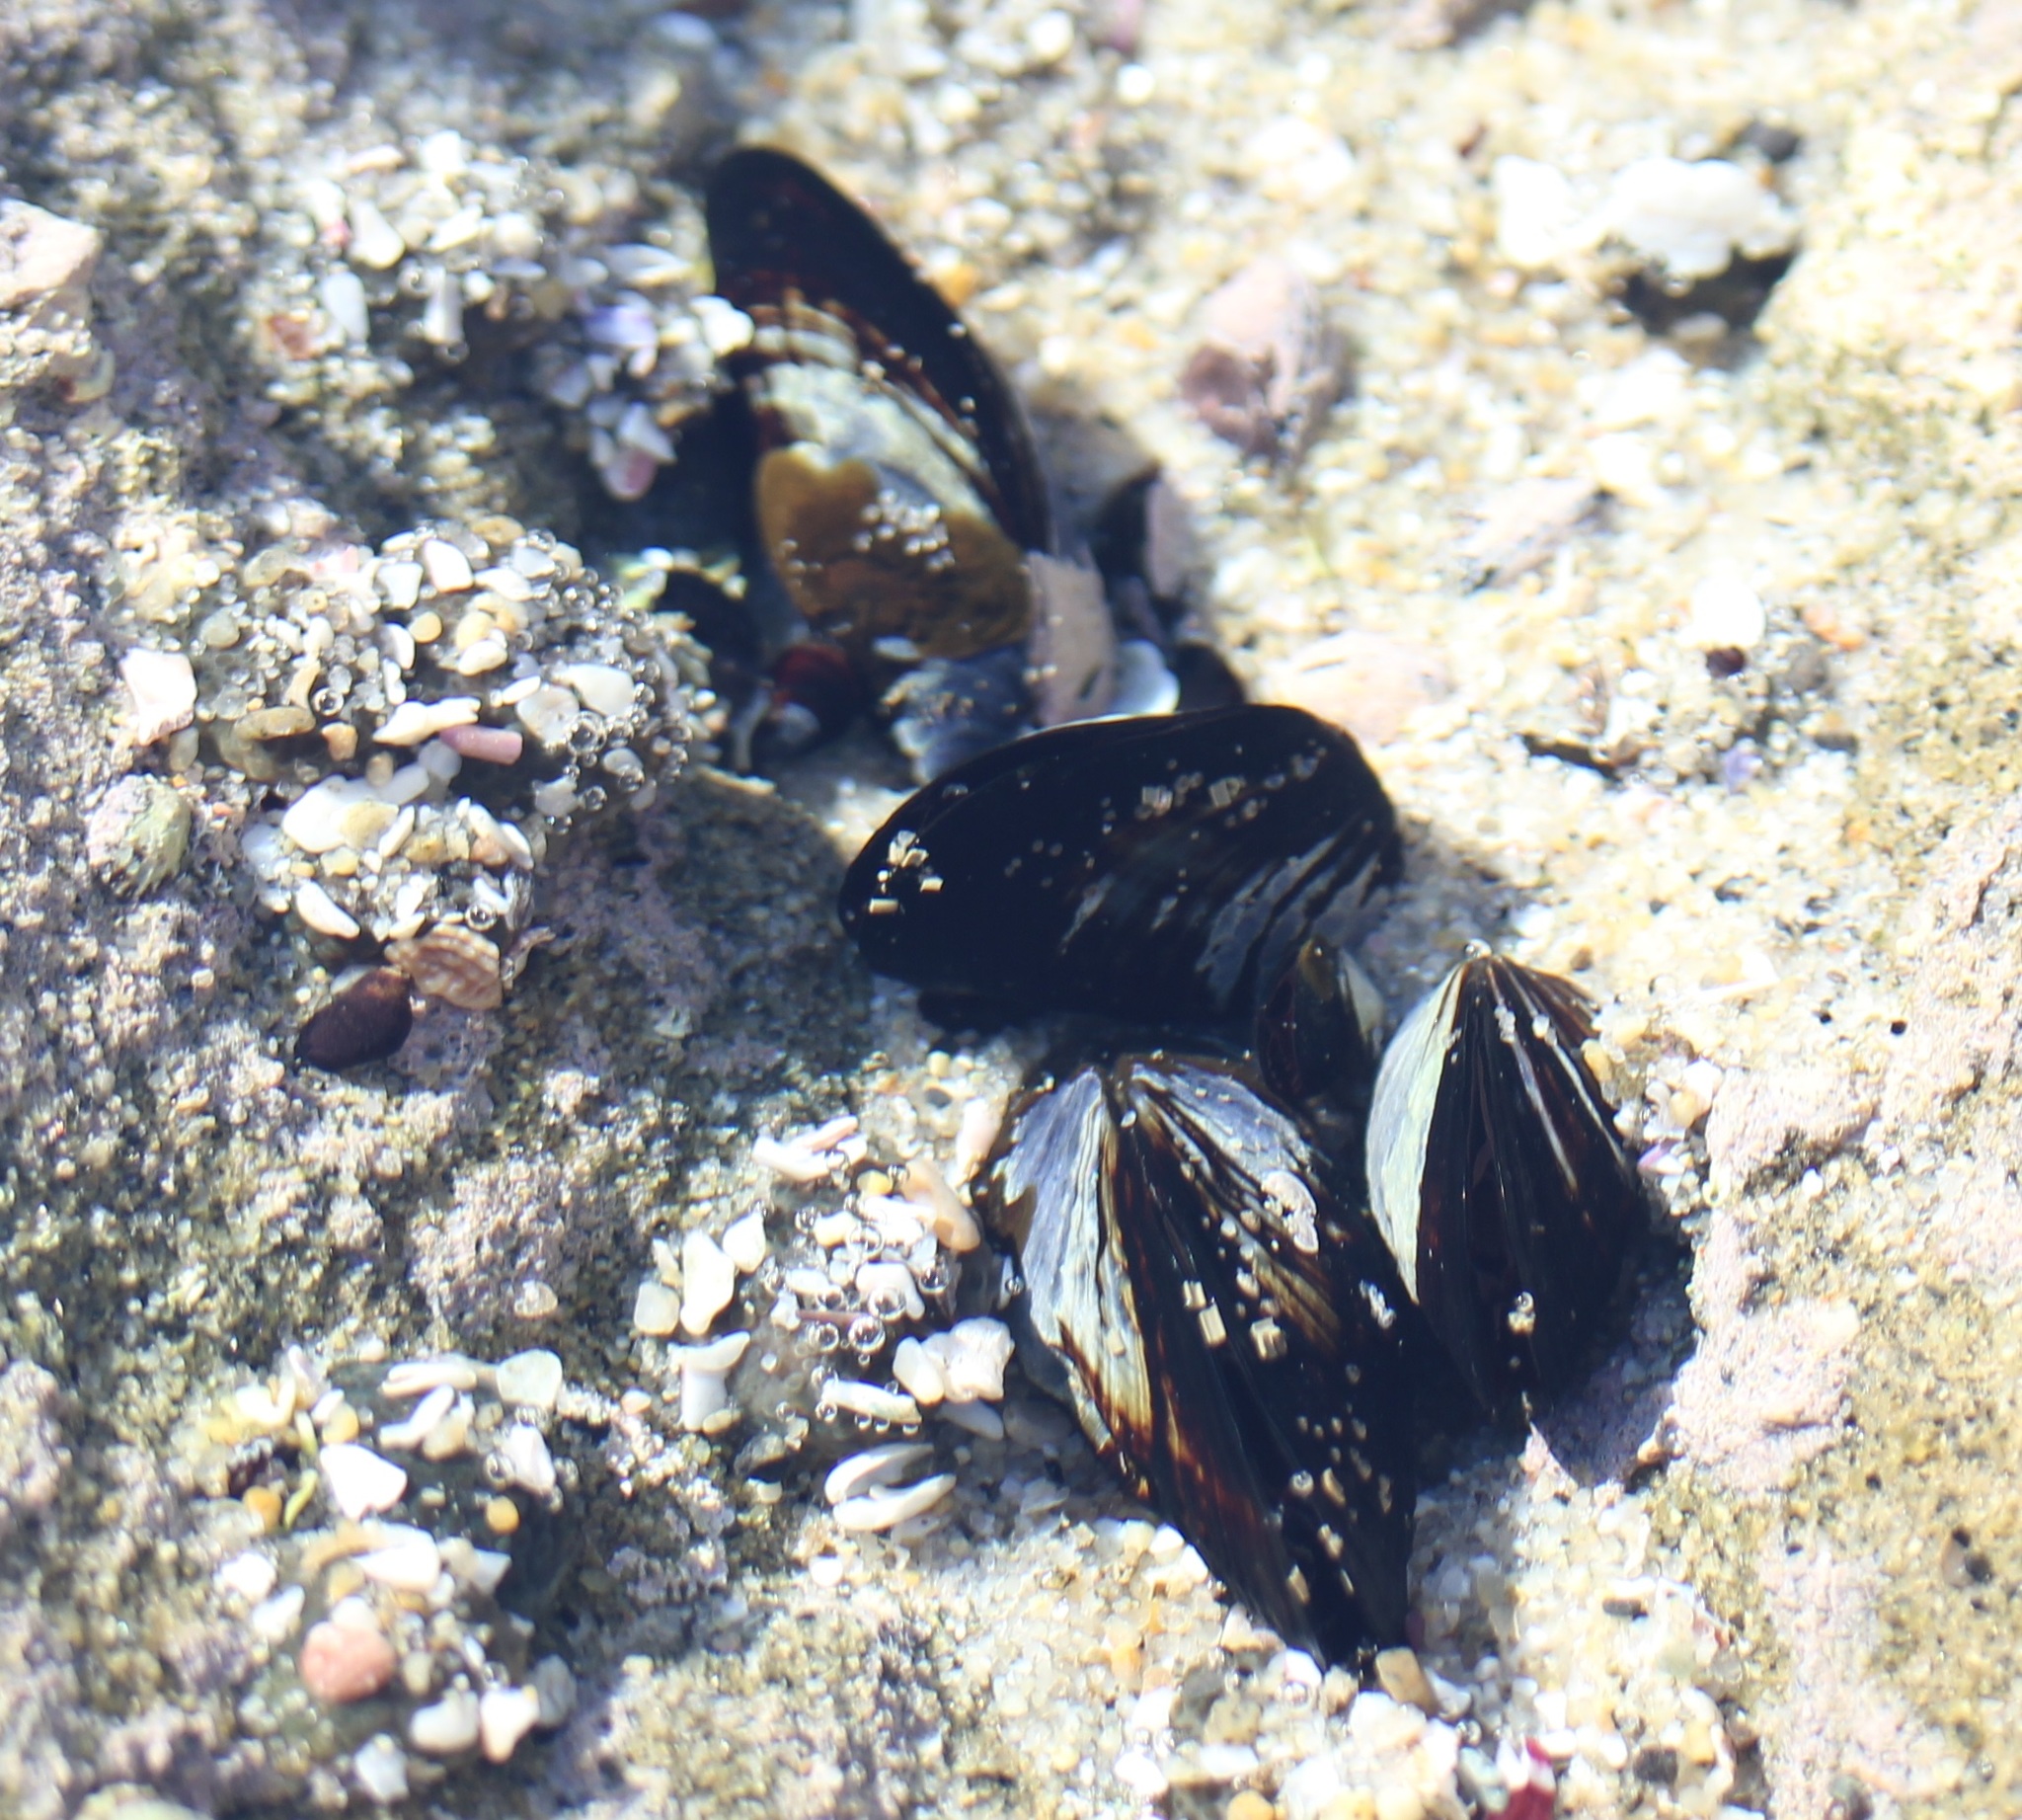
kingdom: Animalia
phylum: Mollusca
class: Bivalvia
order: Mytilida
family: Mytilidae
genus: Mytilus
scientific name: Mytilus californianus
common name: California mussel
